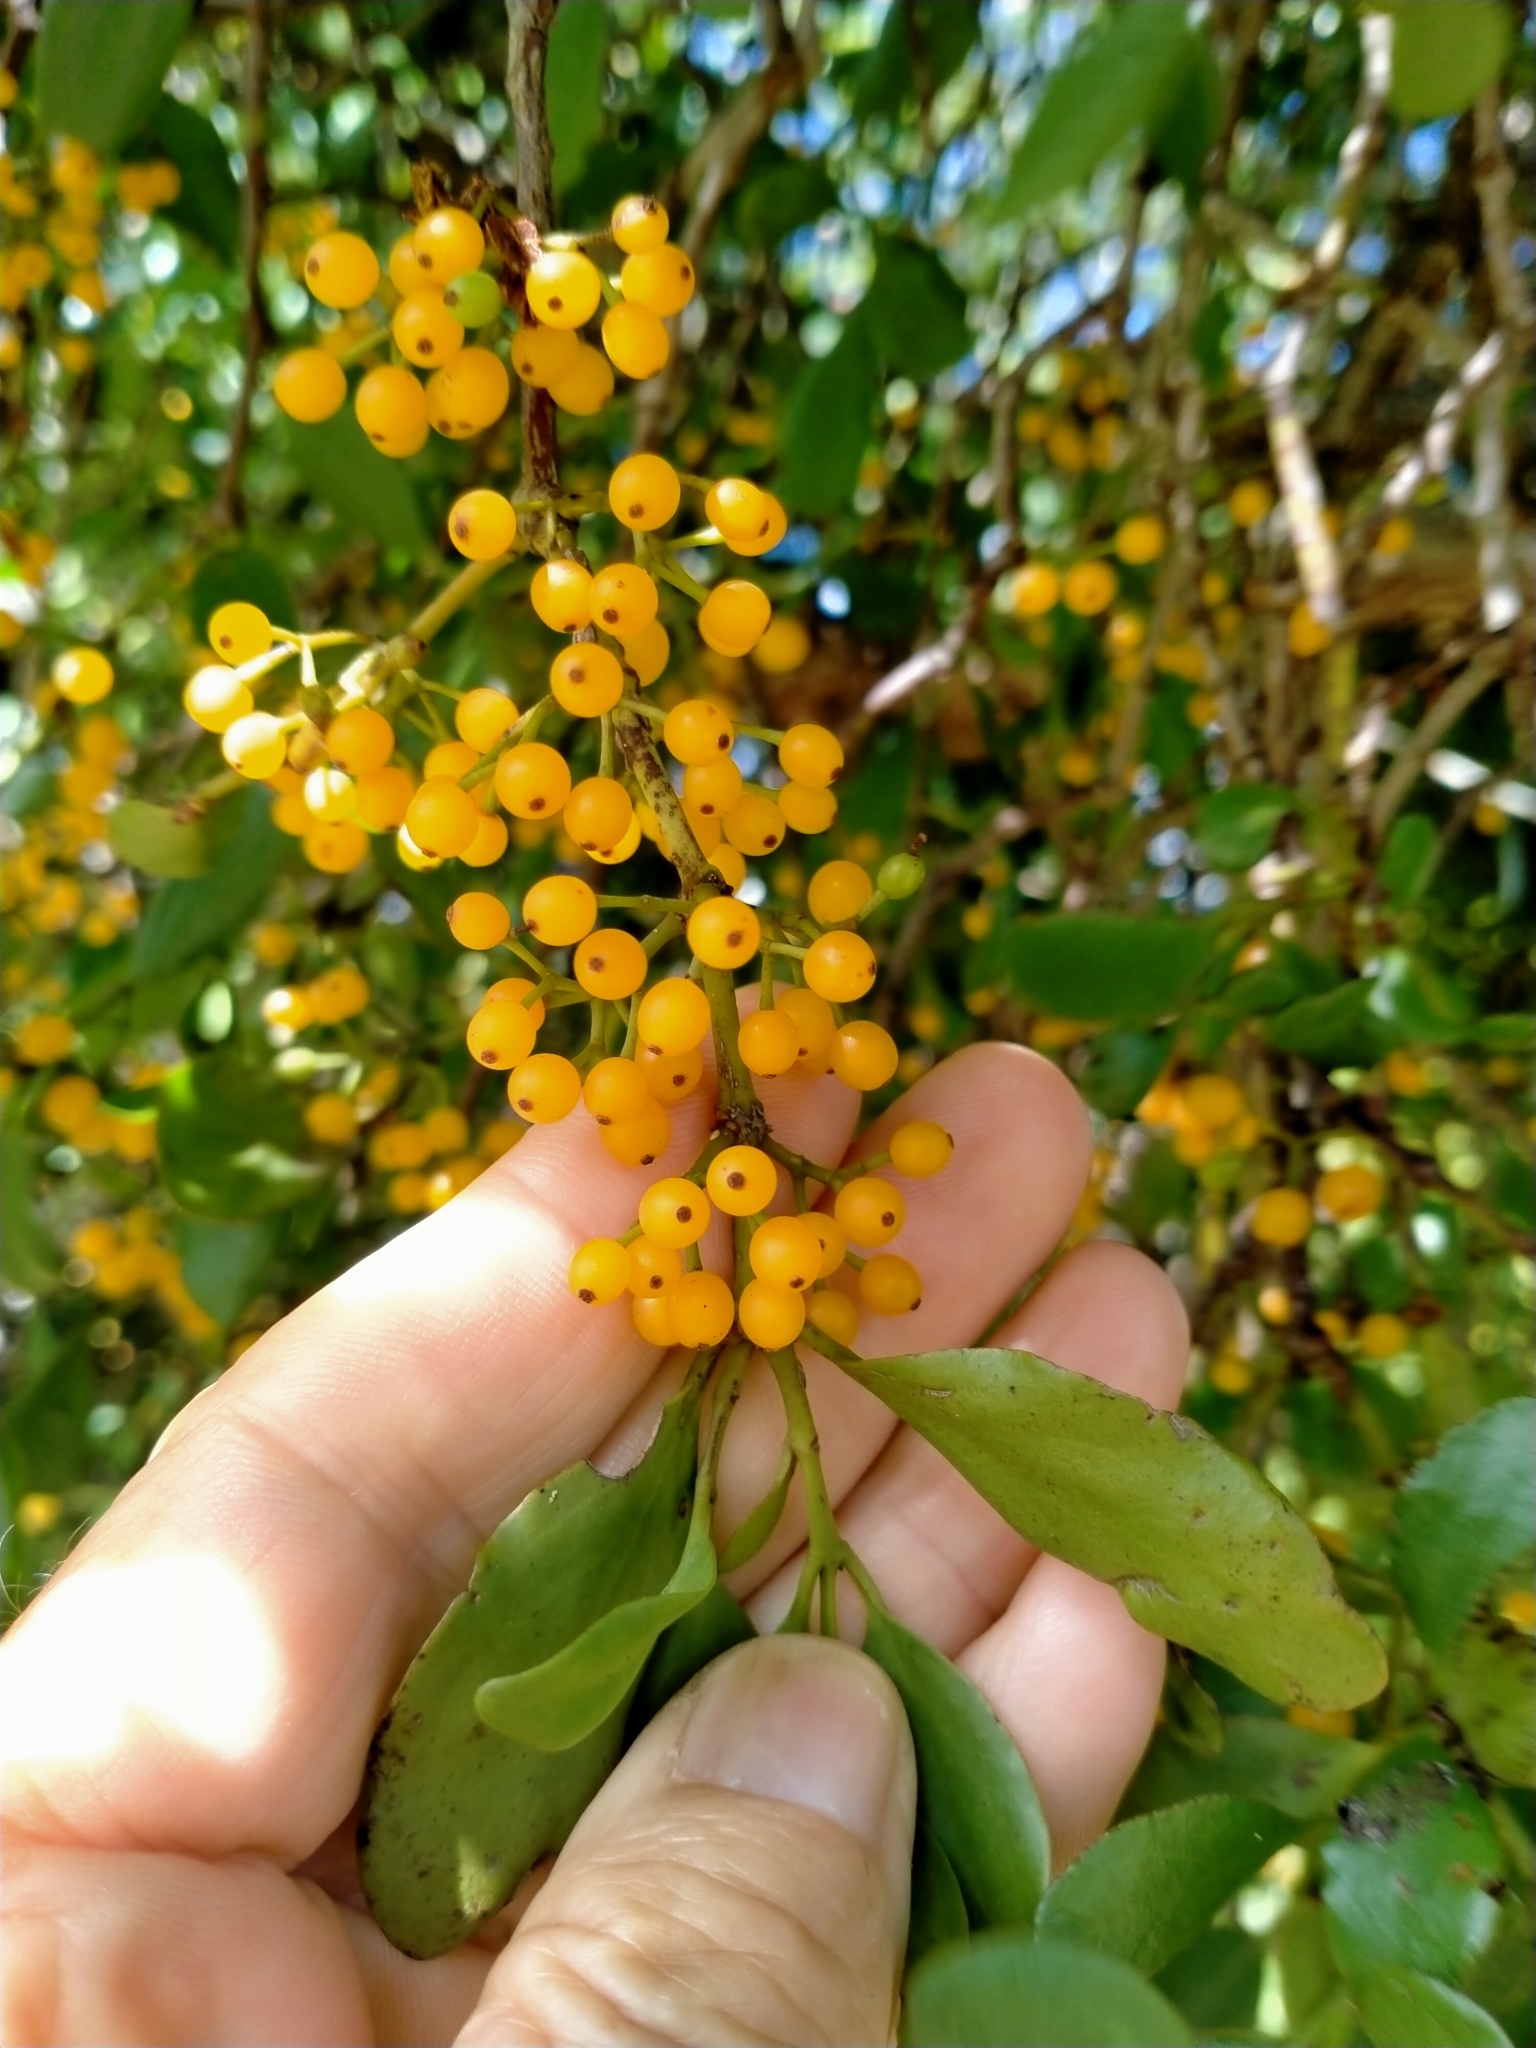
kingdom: Plantae
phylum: Tracheophyta
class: Magnoliopsida
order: Santalales
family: Loranthaceae
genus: Ileostylus
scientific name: Ileostylus micranthus
